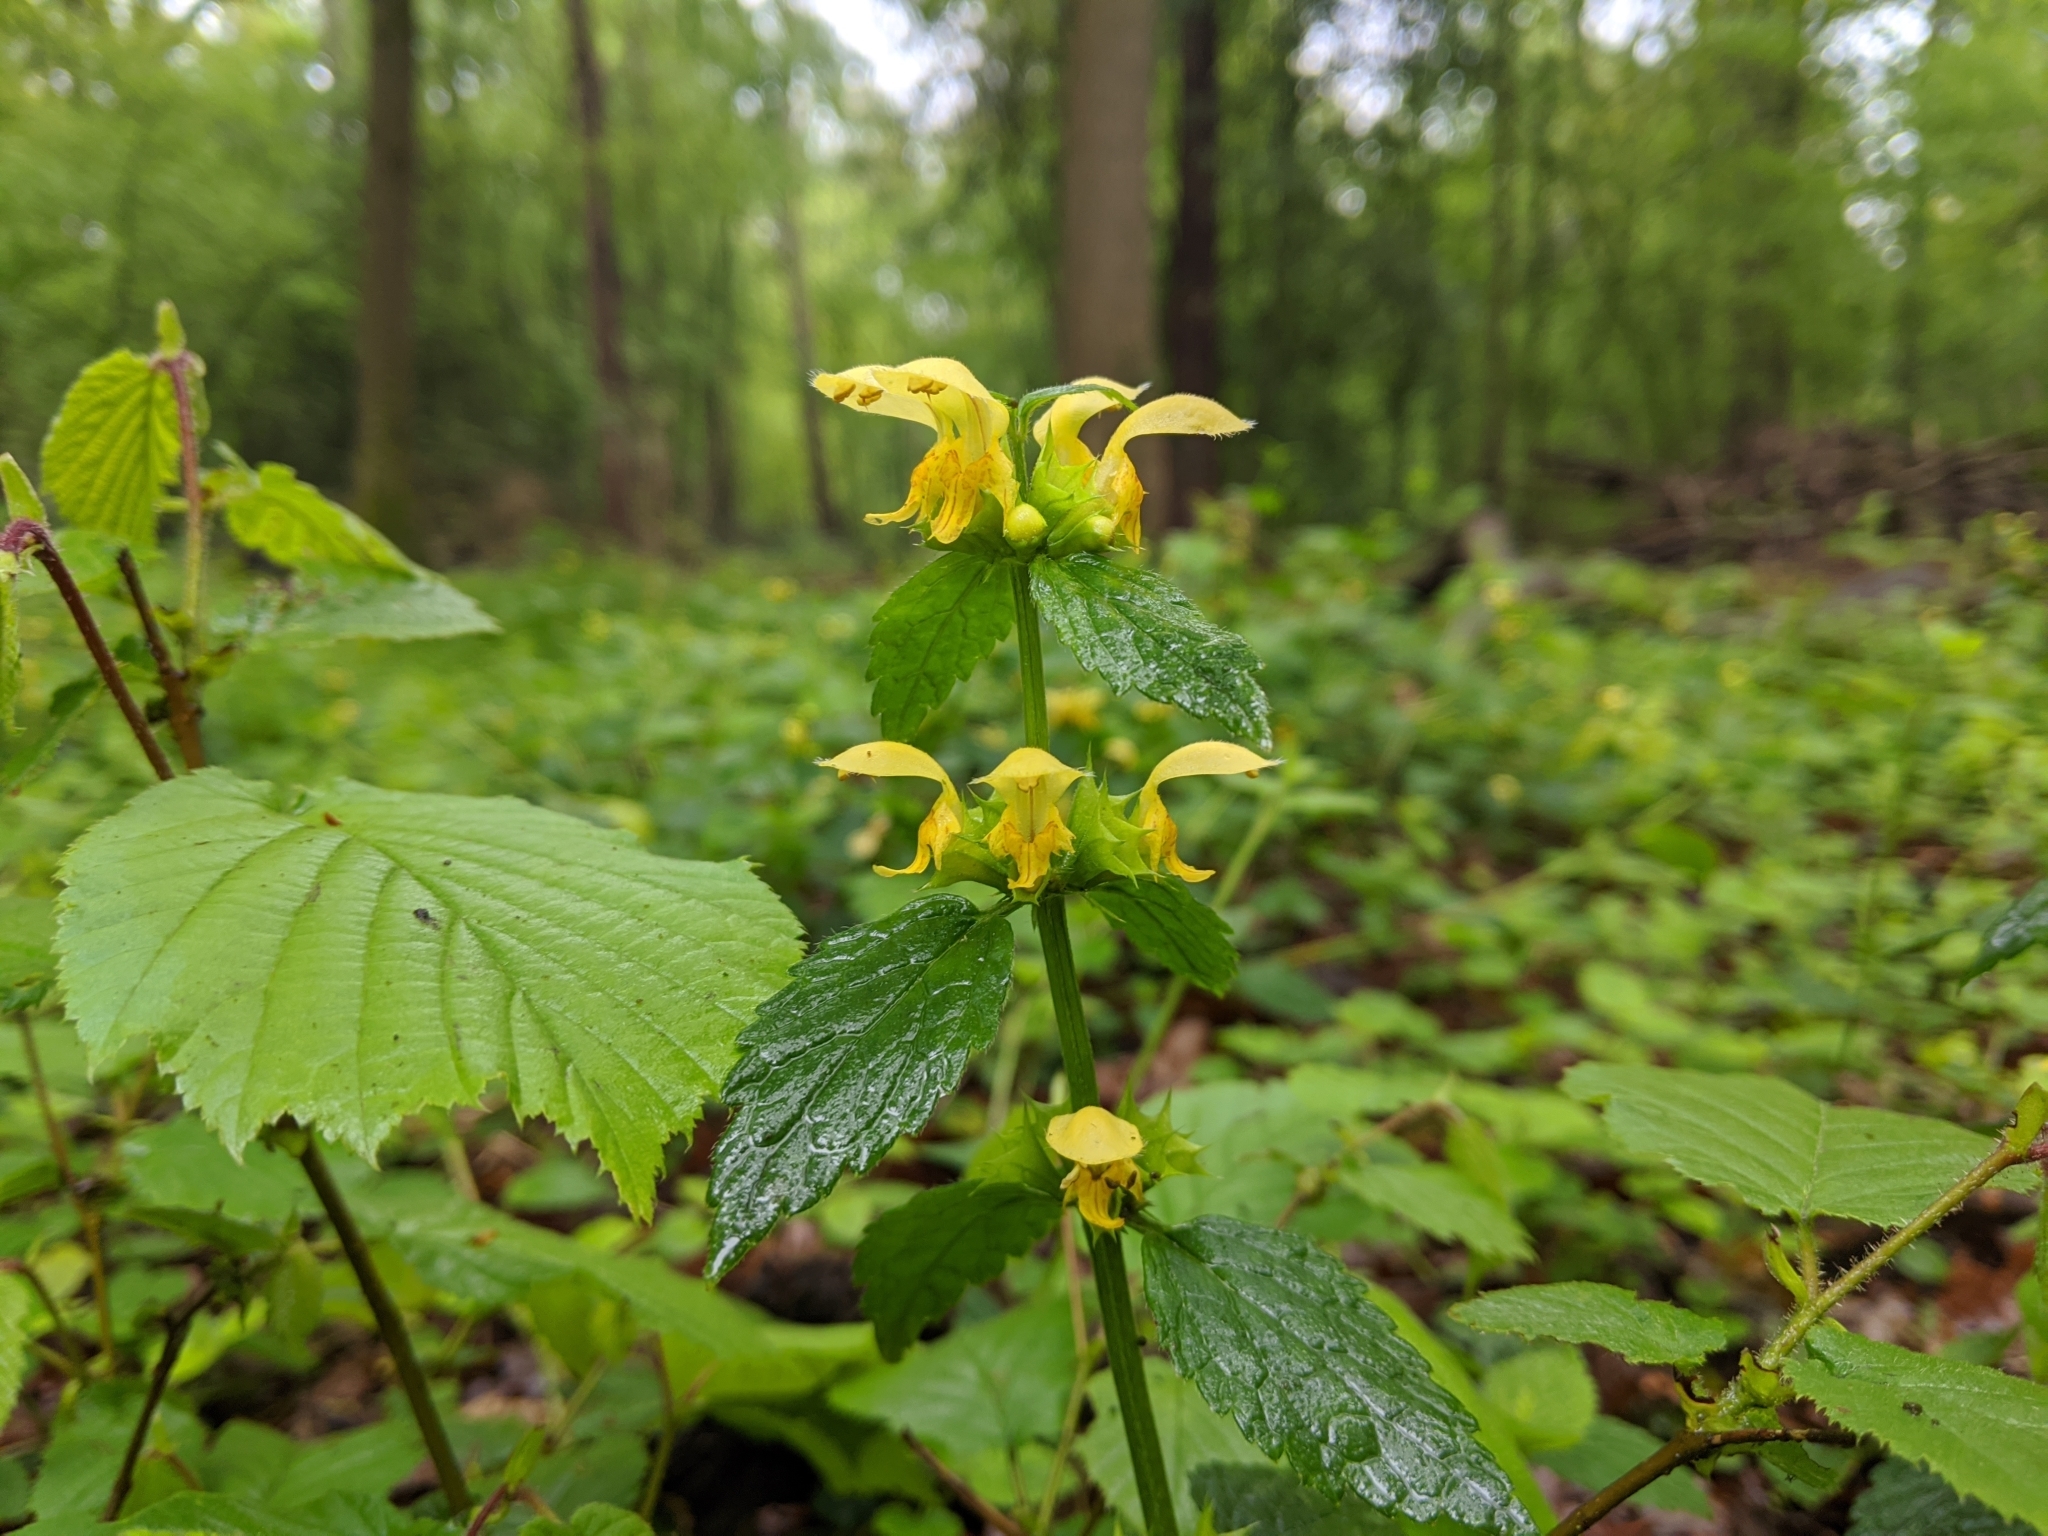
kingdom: Plantae
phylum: Tracheophyta
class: Magnoliopsida
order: Lamiales
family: Lamiaceae
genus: Lamium
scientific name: Lamium galeobdolon
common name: Yellow archangel
